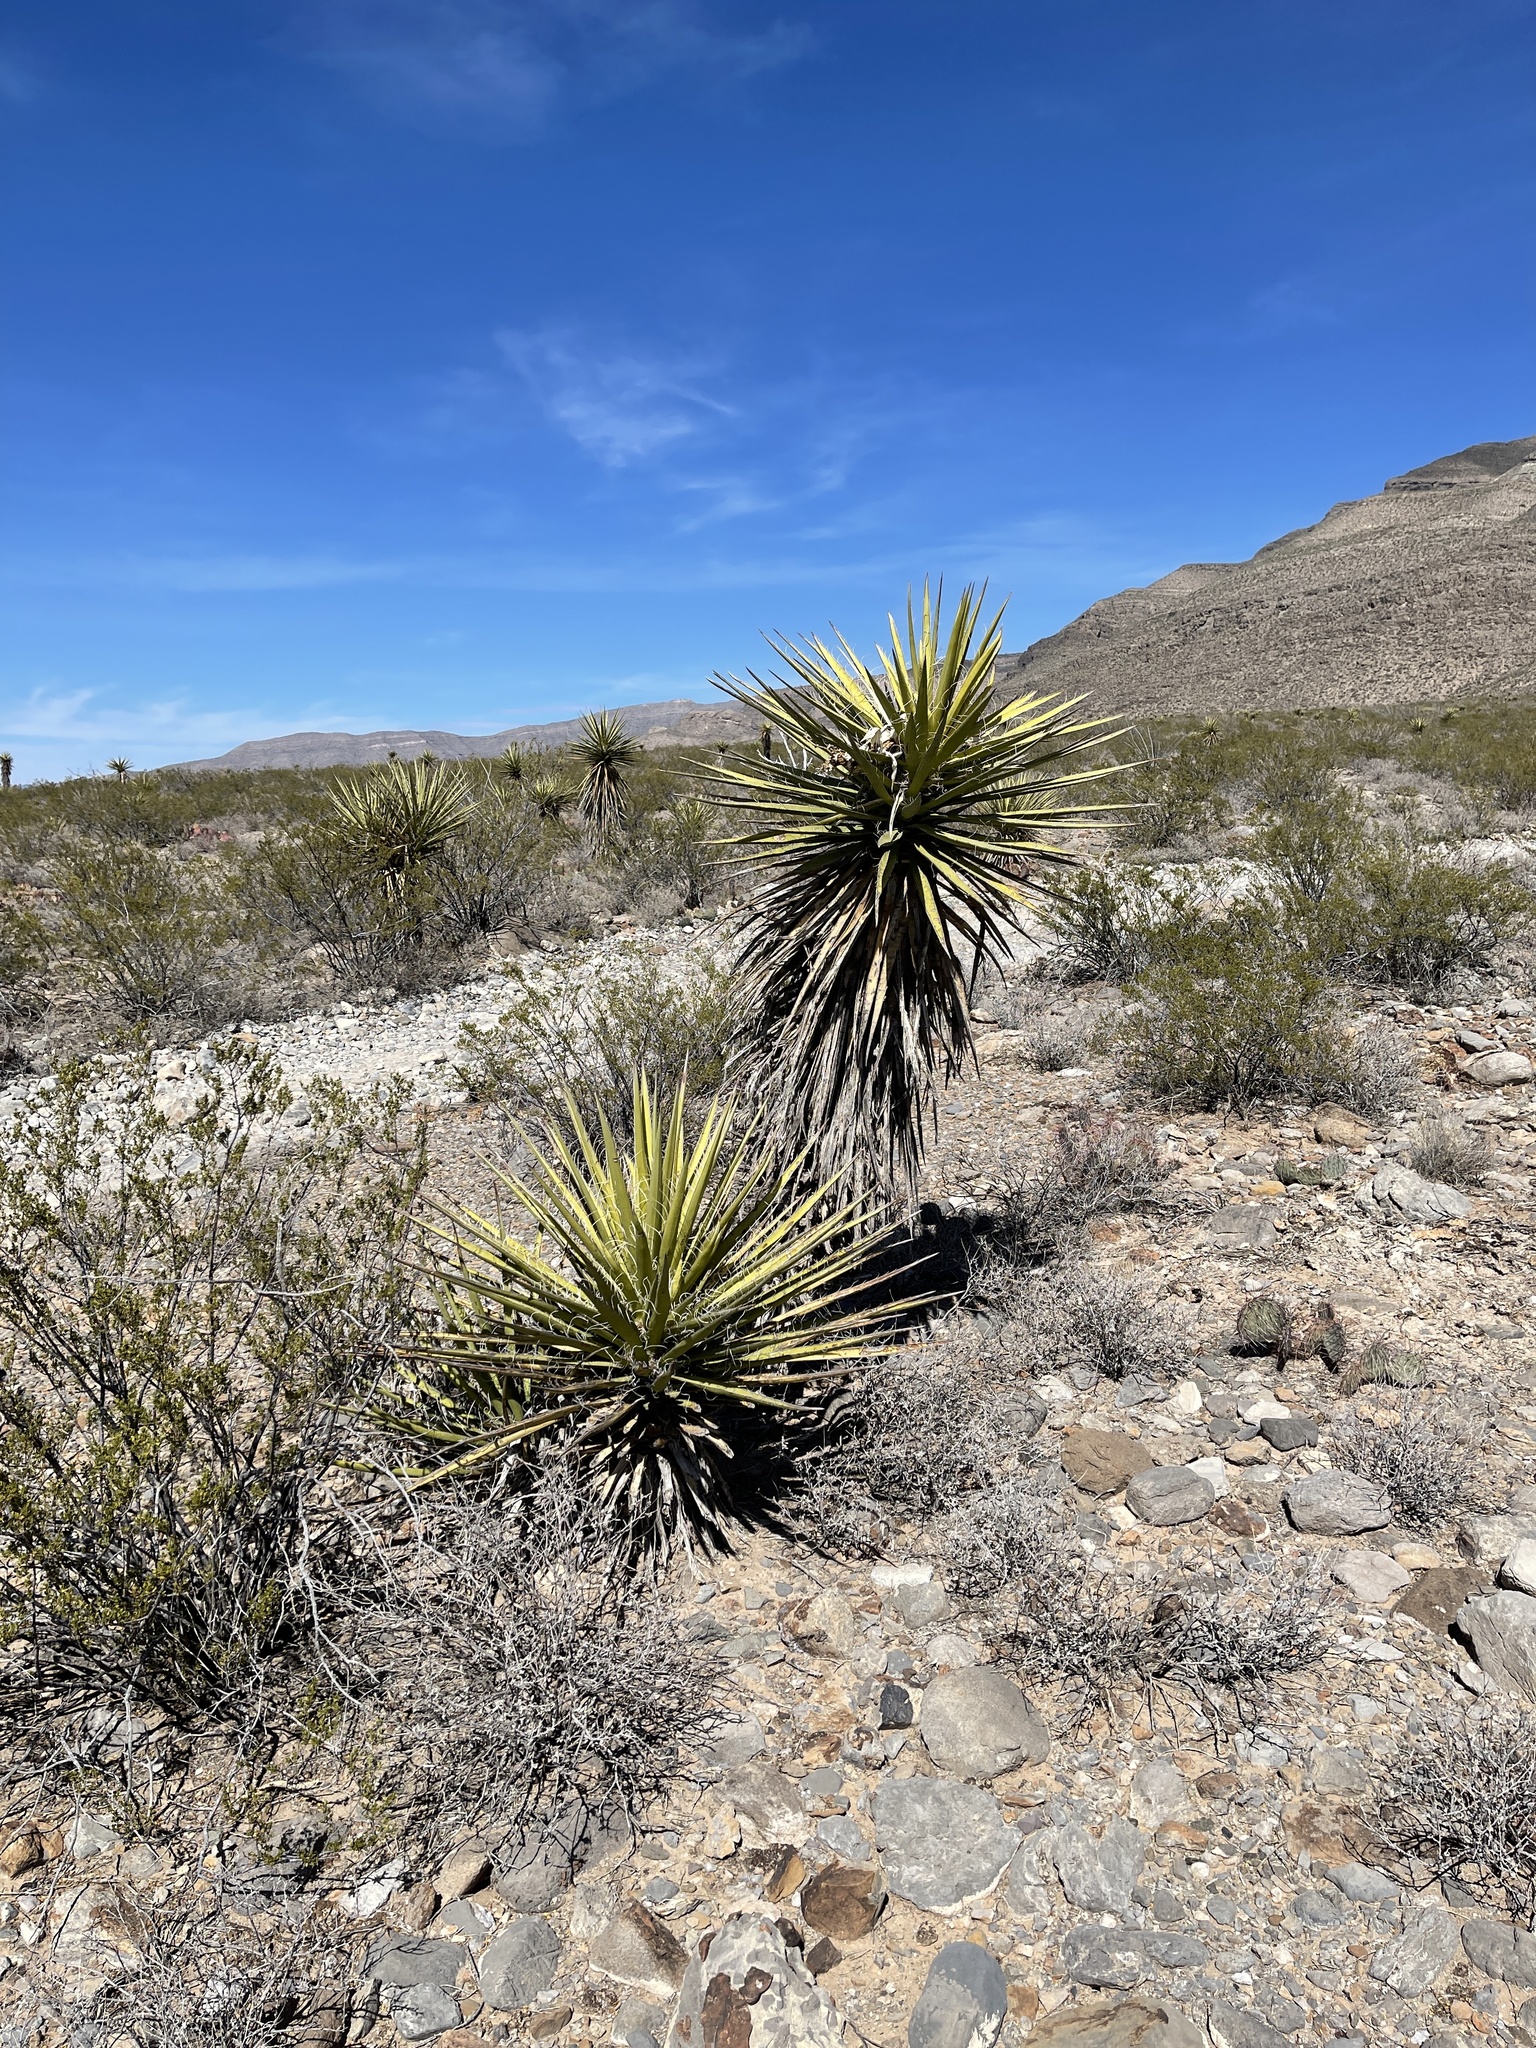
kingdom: Plantae
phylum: Tracheophyta
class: Liliopsida
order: Asparagales
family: Asparagaceae
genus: Yucca
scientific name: Yucca treculiana
